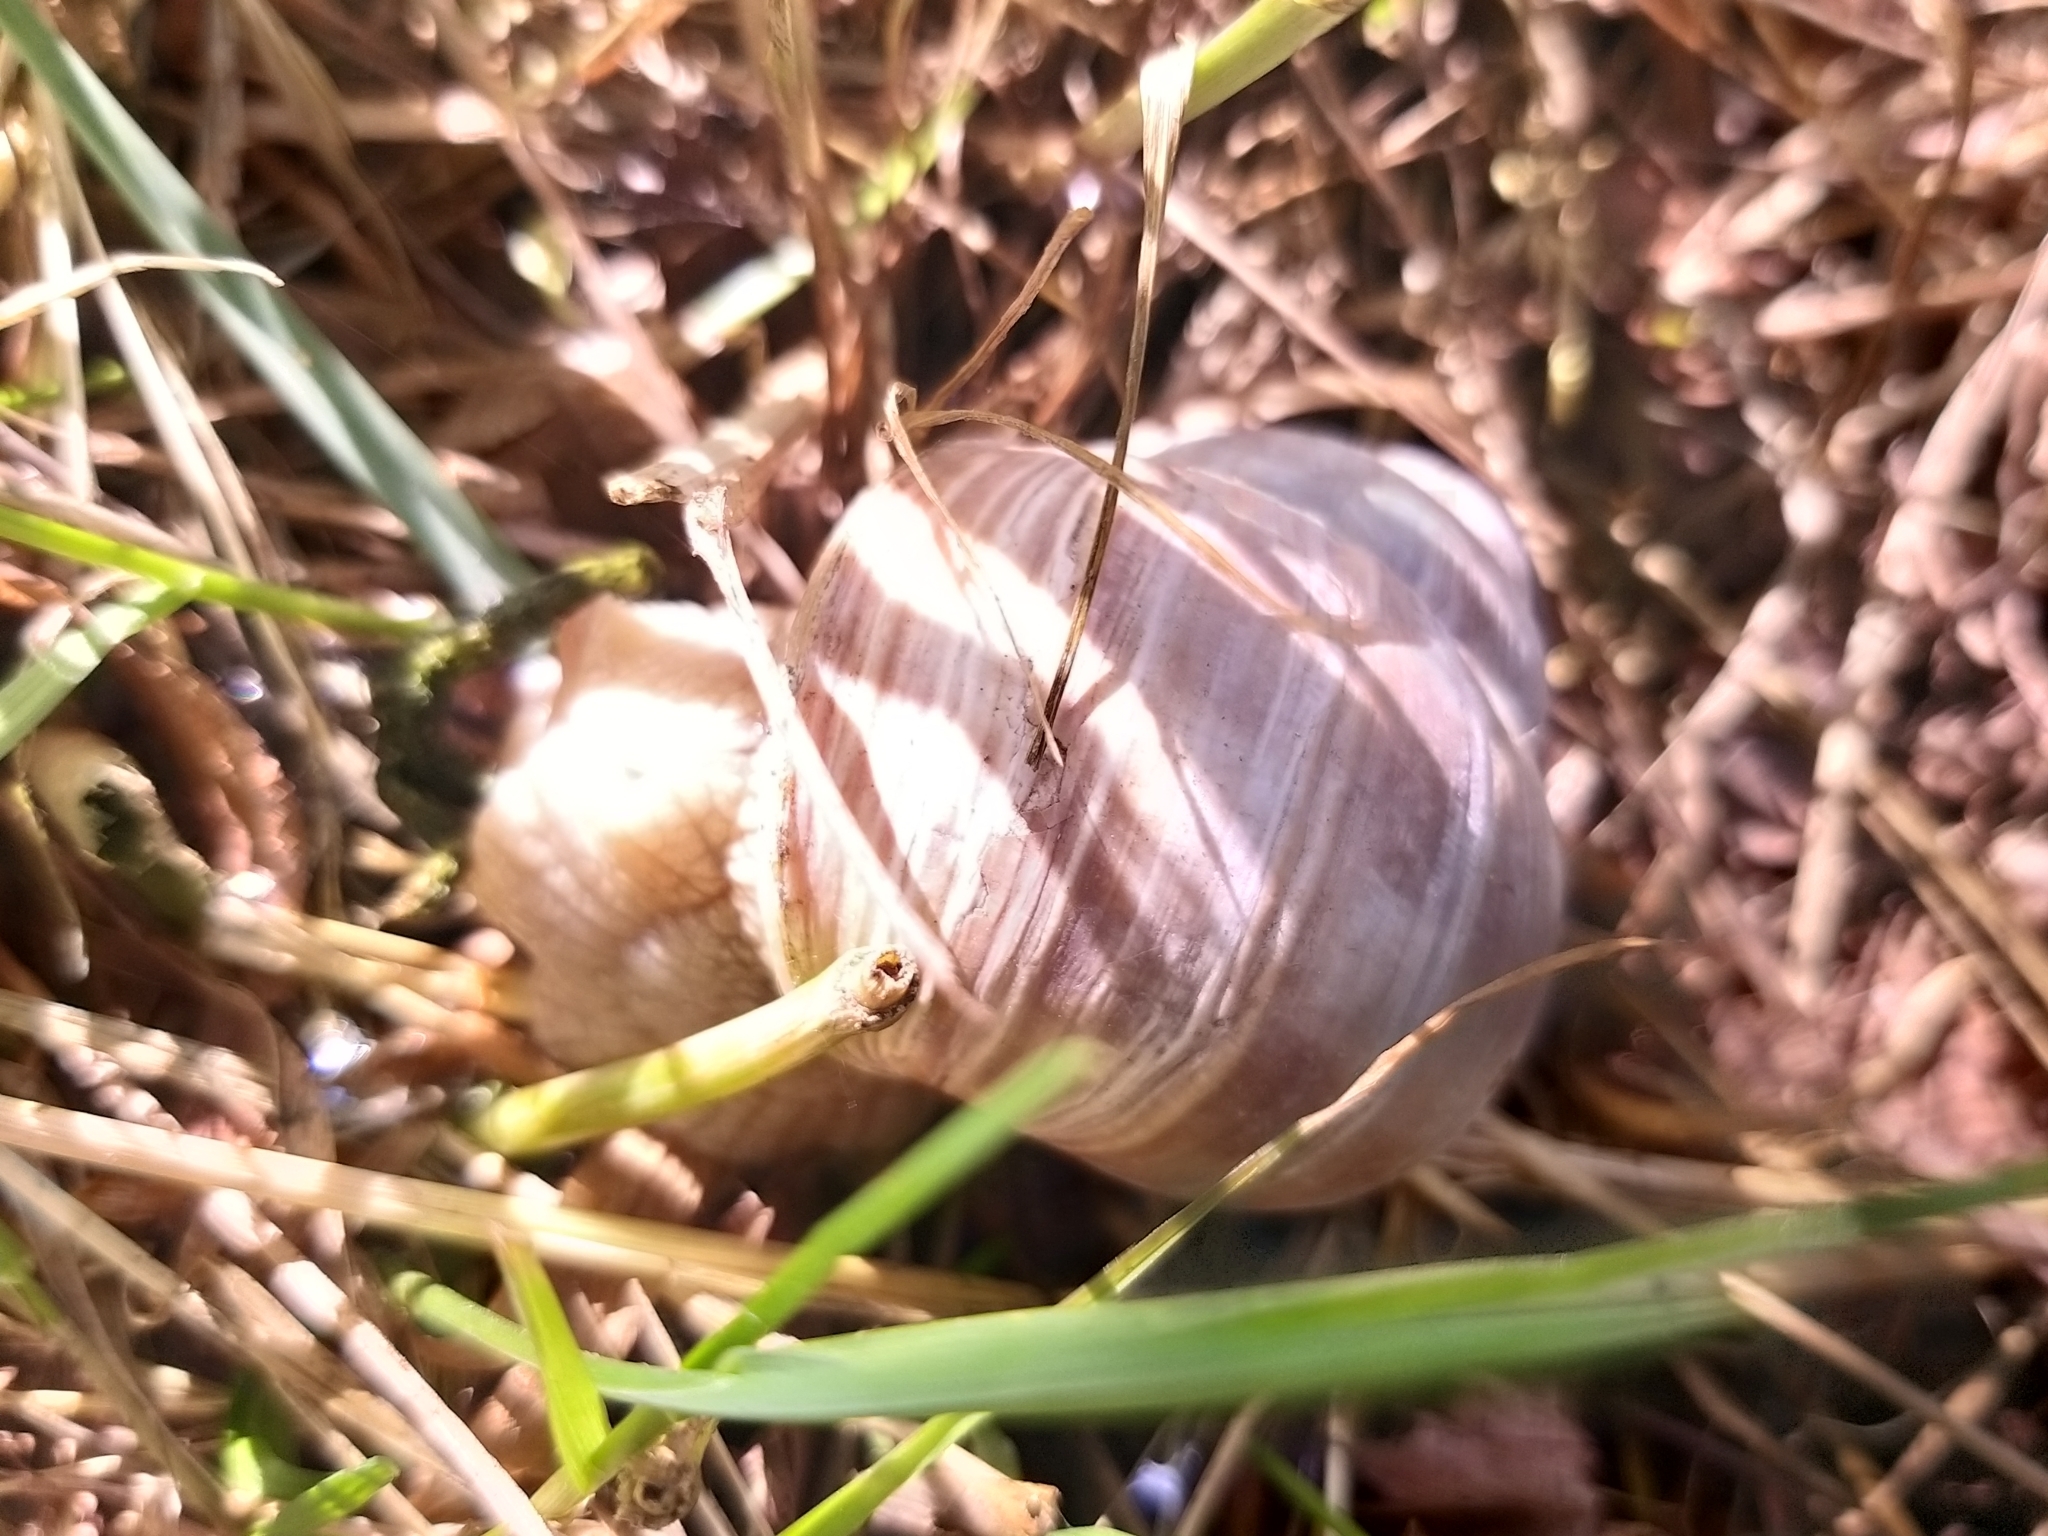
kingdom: Animalia
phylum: Mollusca
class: Gastropoda
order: Stylommatophora
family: Helicidae
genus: Helix
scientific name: Helix pomatia
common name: Roman snail
